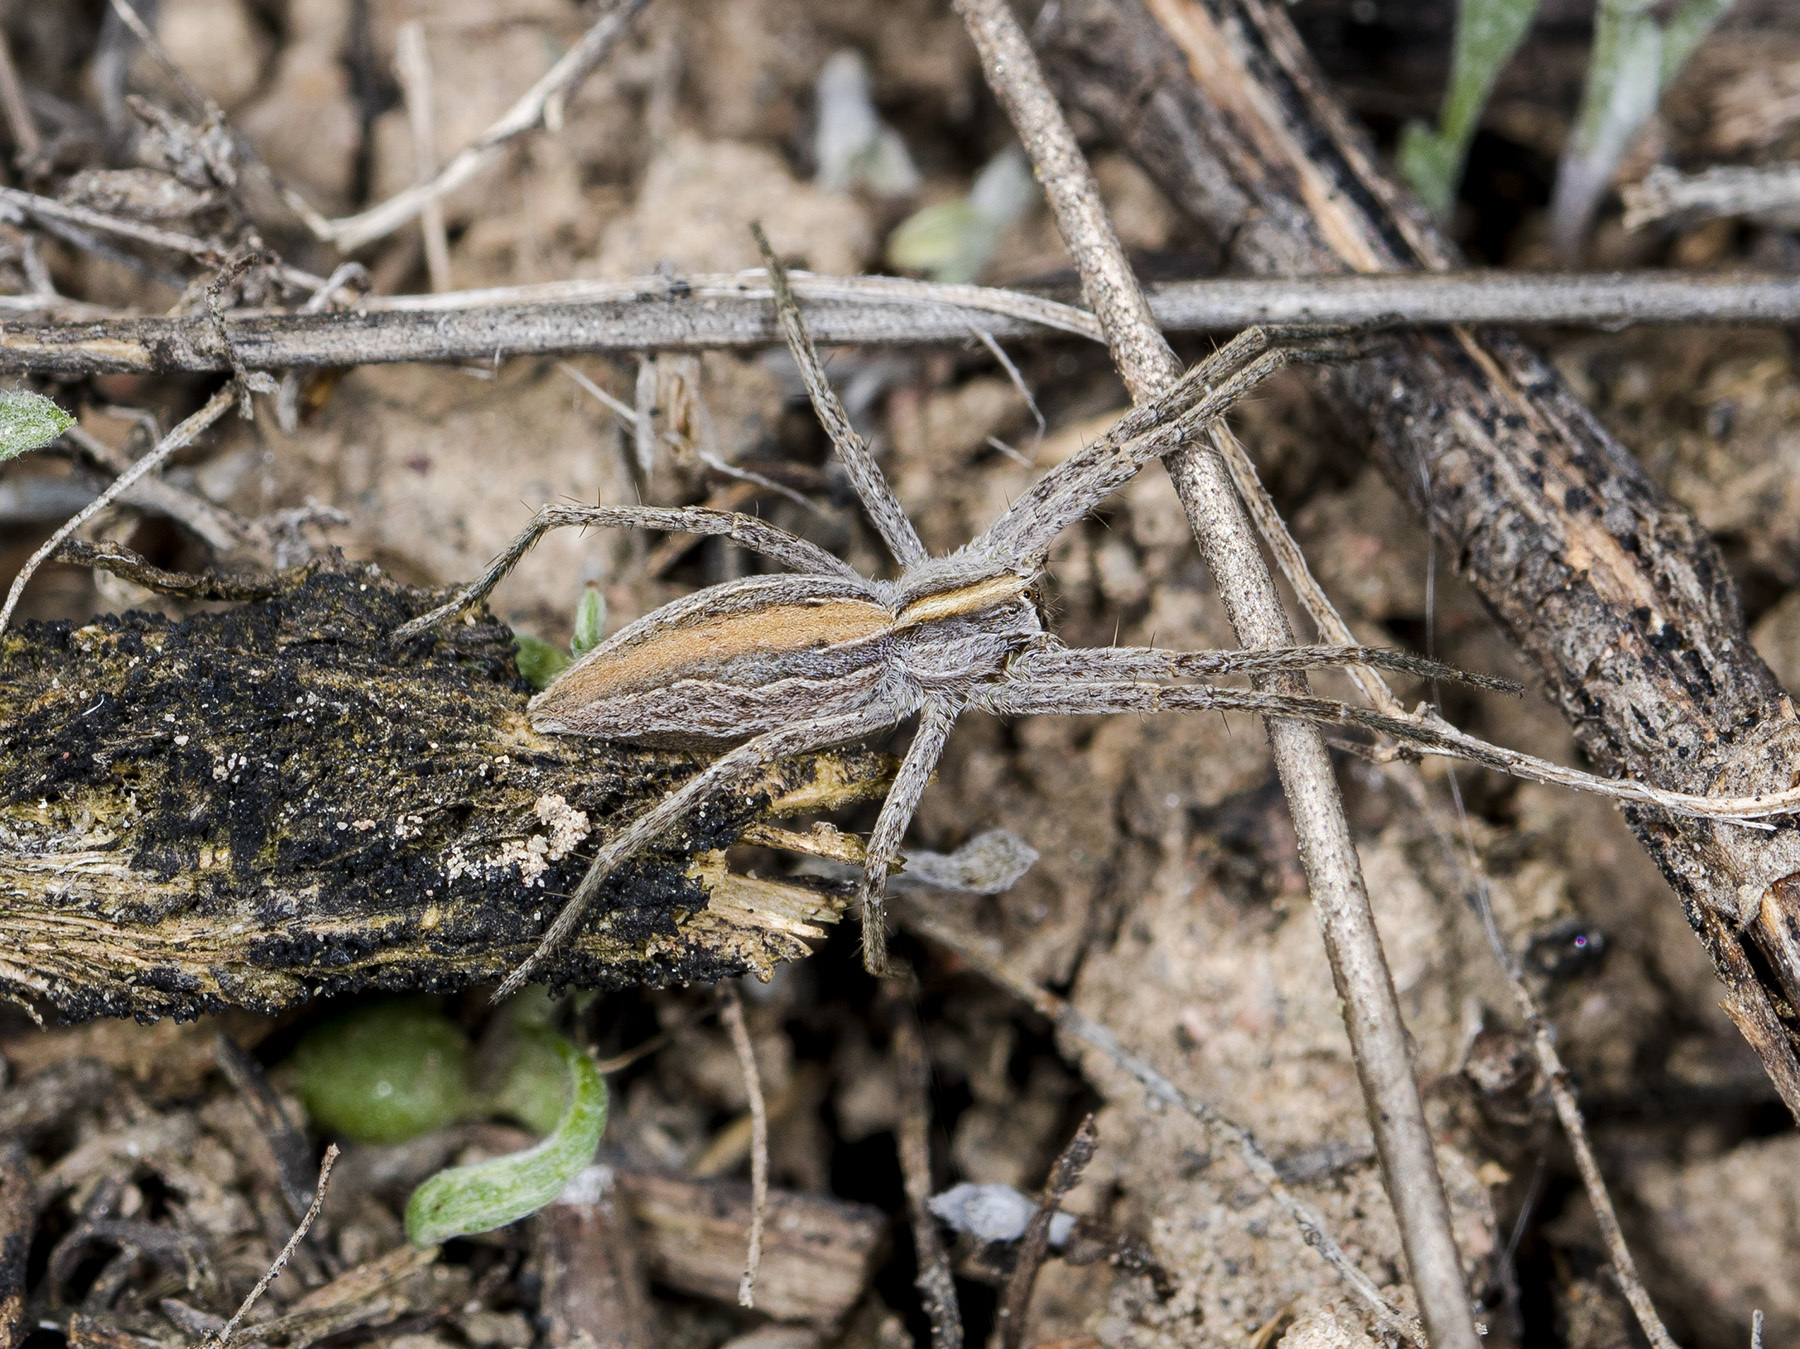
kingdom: Animalia
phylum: Arthropoda
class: Arachnida
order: Araneae
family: Pisauridae
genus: Pisaura
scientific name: Pisaura mirabilis
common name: Tent spider
